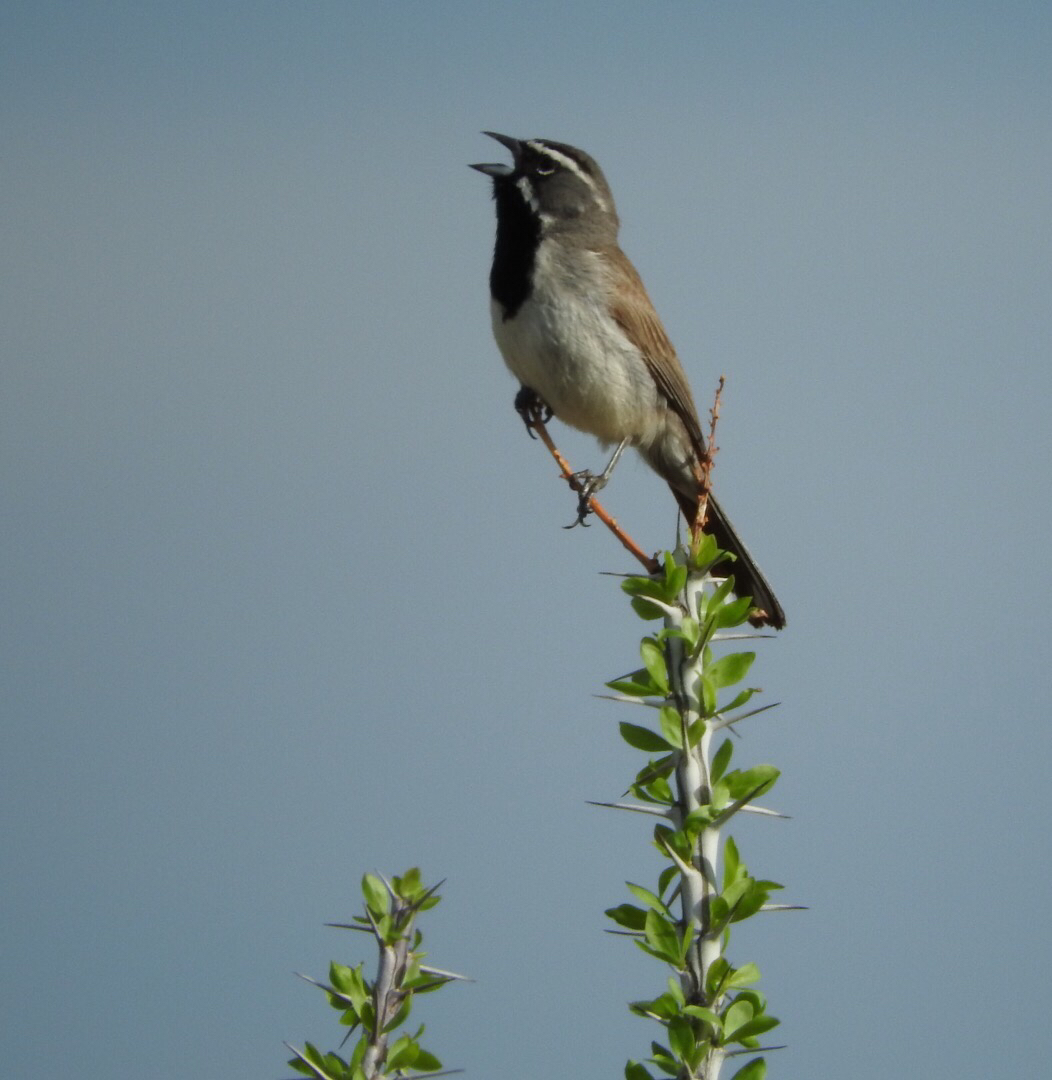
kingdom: Animalia
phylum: Chordata
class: Aves
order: Passeriformes
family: Passerellidae
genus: Amphispiza
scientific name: Amphispiza bilineata
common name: Black-throated sparrow
